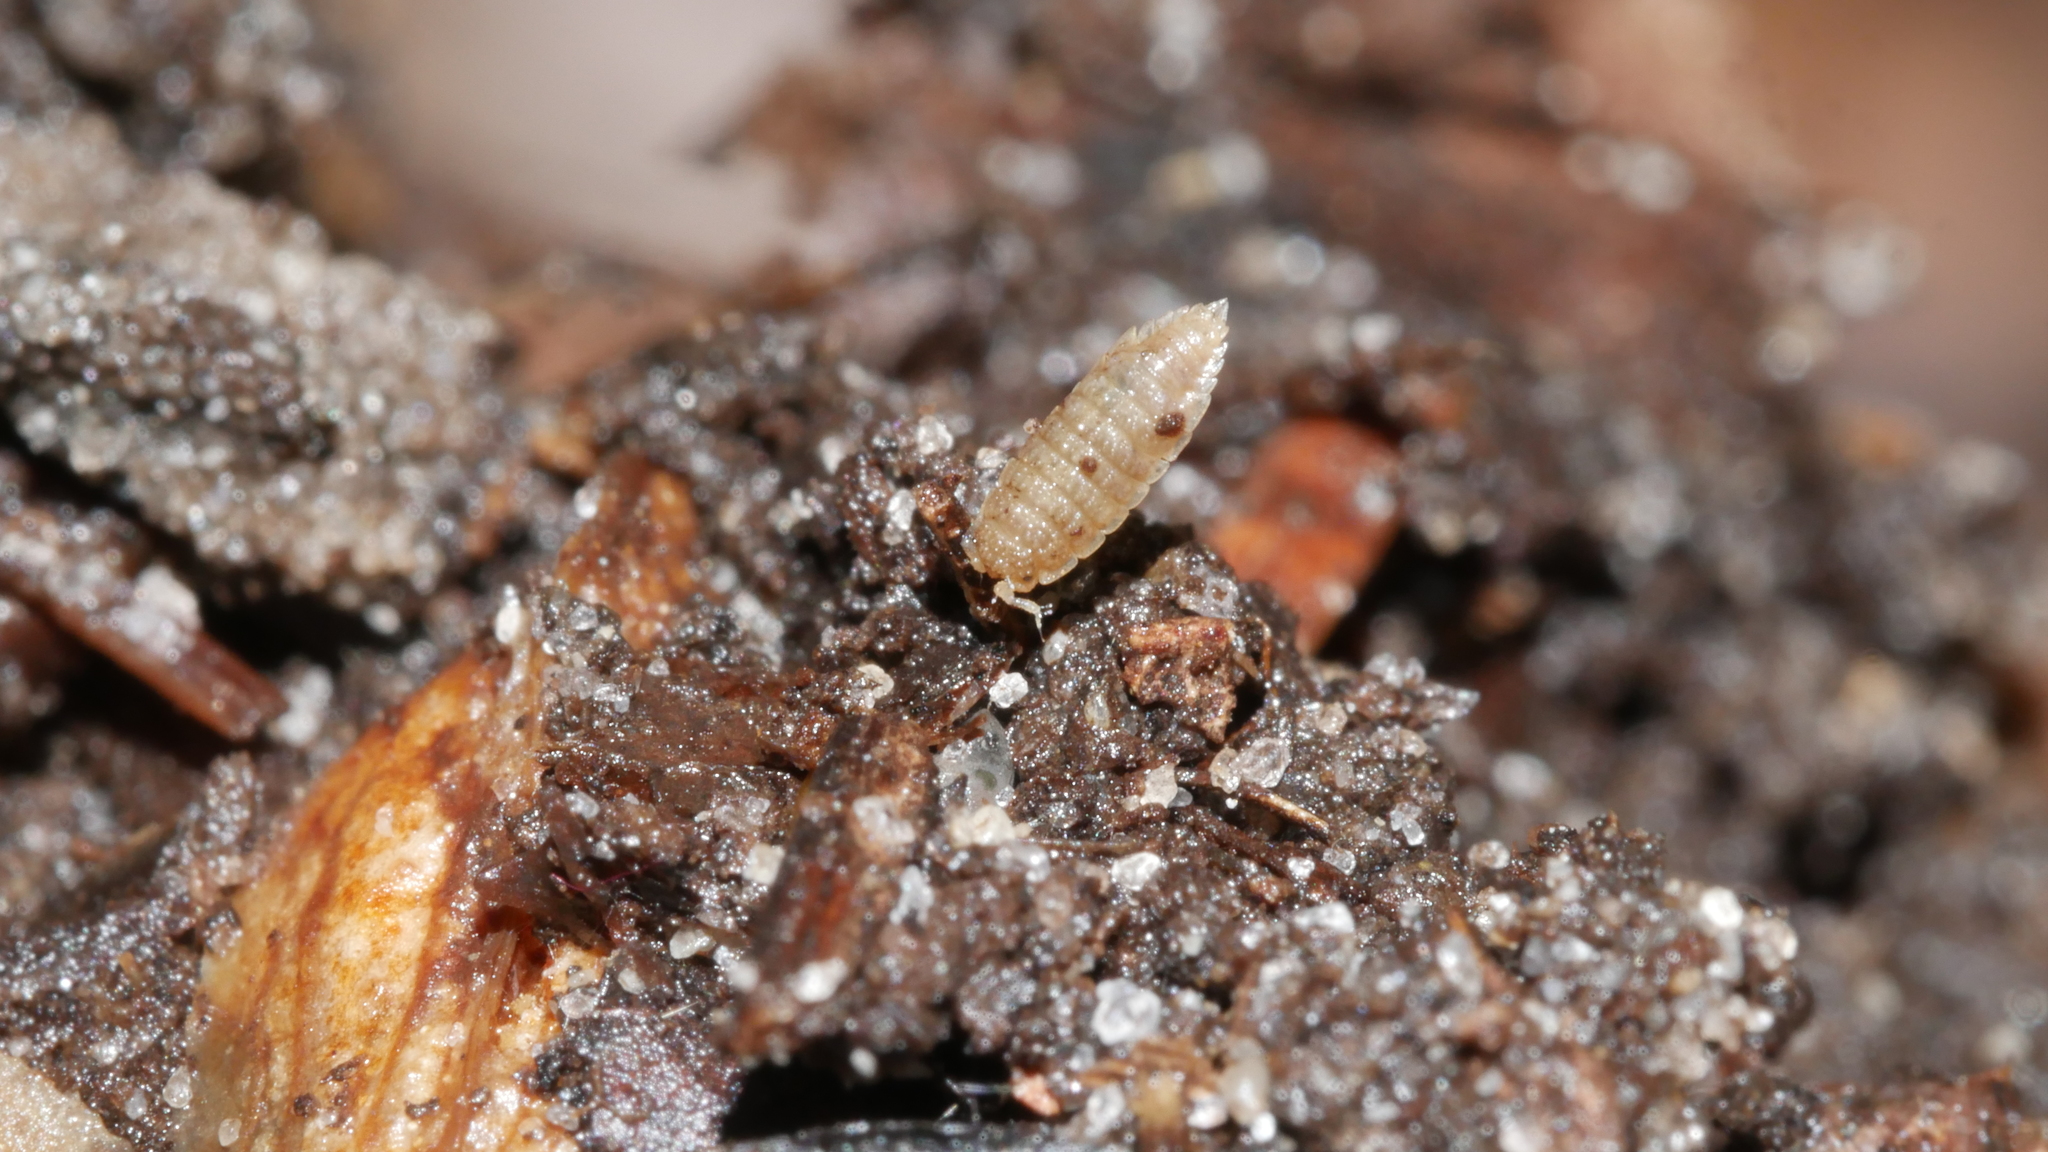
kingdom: Animalia
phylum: Arthropoda
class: Malacostraca
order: Isopoda
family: Trichoniscidae
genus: Haplophthalmus
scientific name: Haplophthalmus danicus
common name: Pillbug
